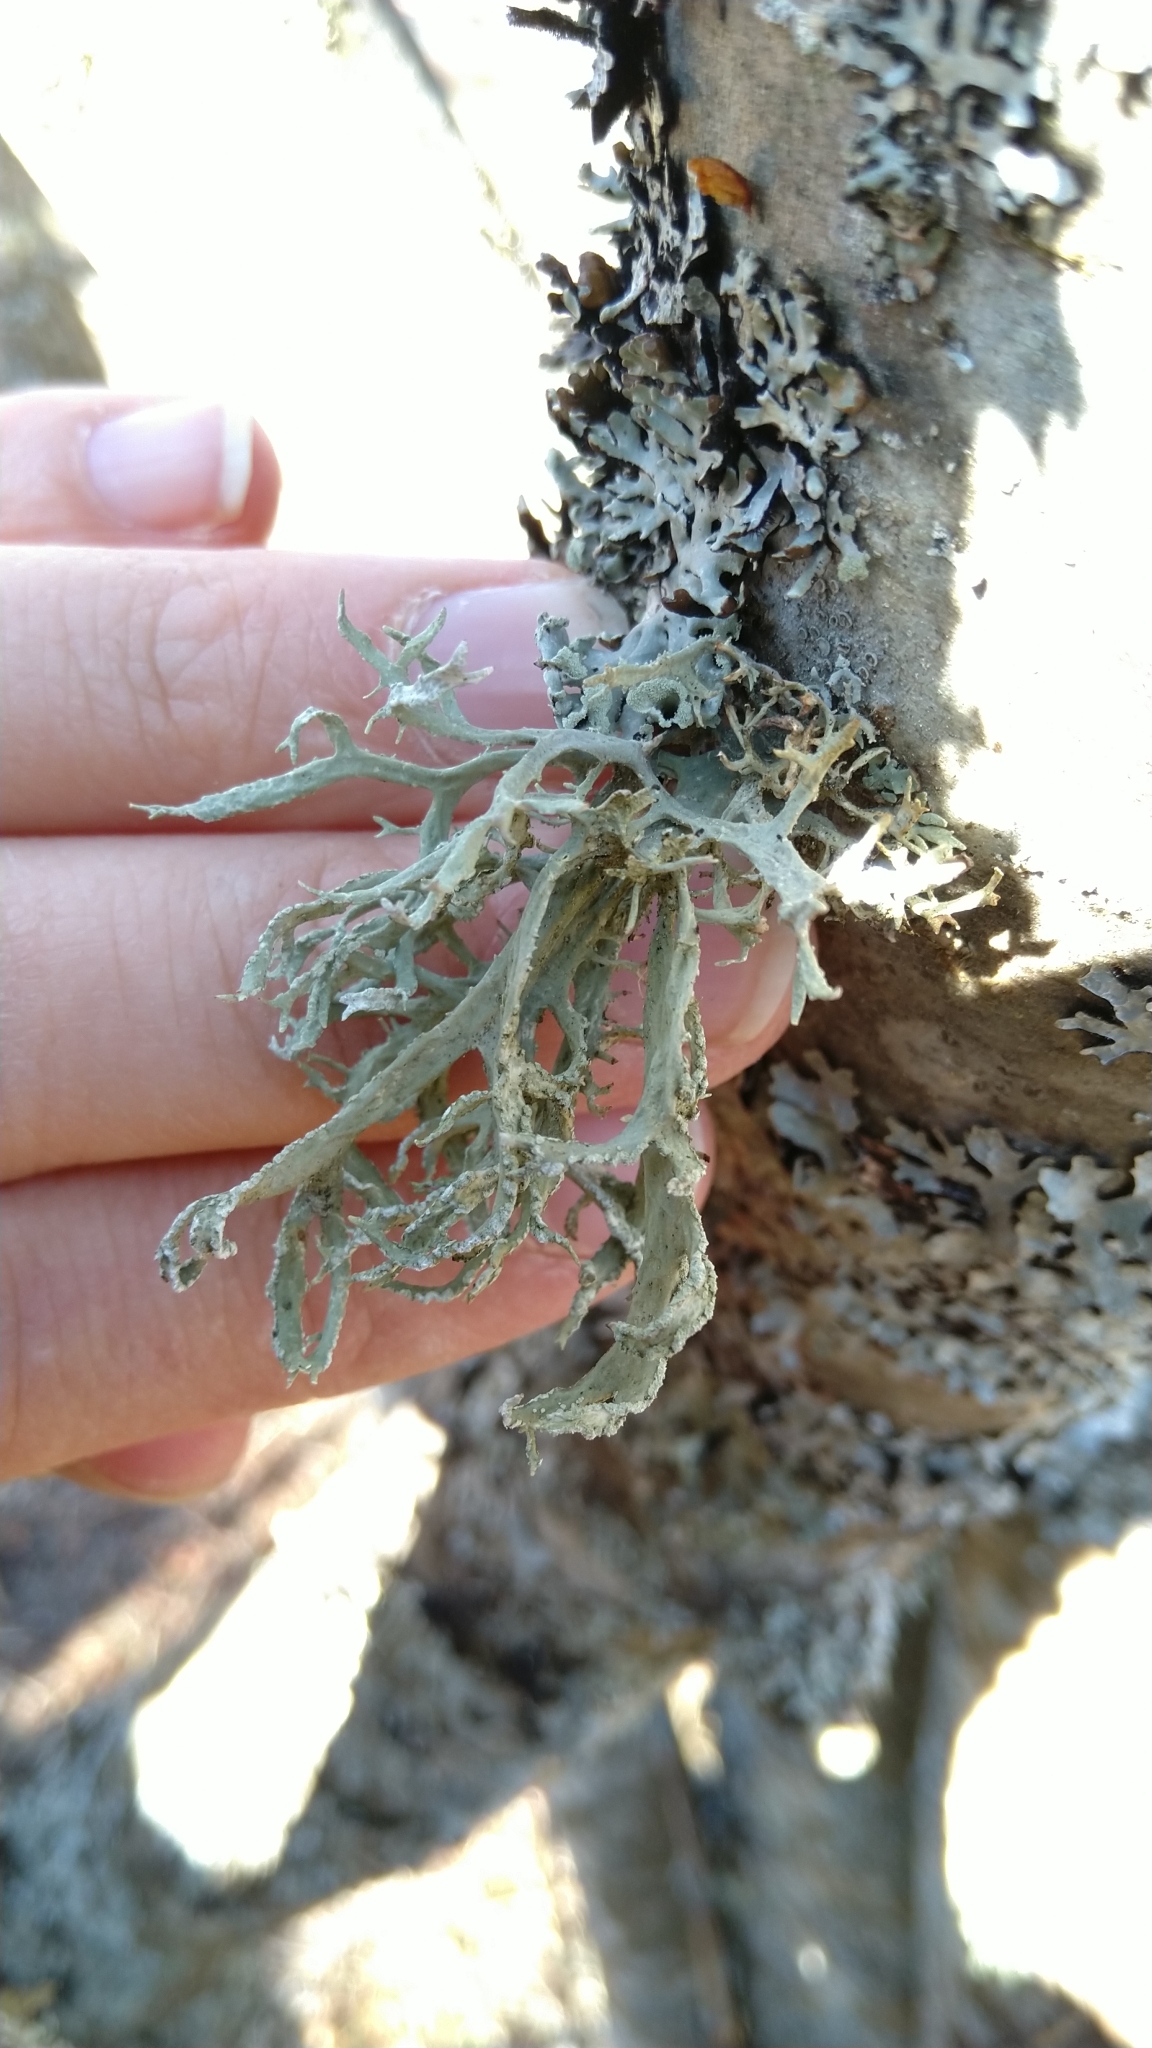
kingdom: Fungi
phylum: Ascomycota
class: Lecanoromycetes
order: Lecanorales
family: Parmeliaceae
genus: Evernia
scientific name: Evernia prunastri
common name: Oak moss
